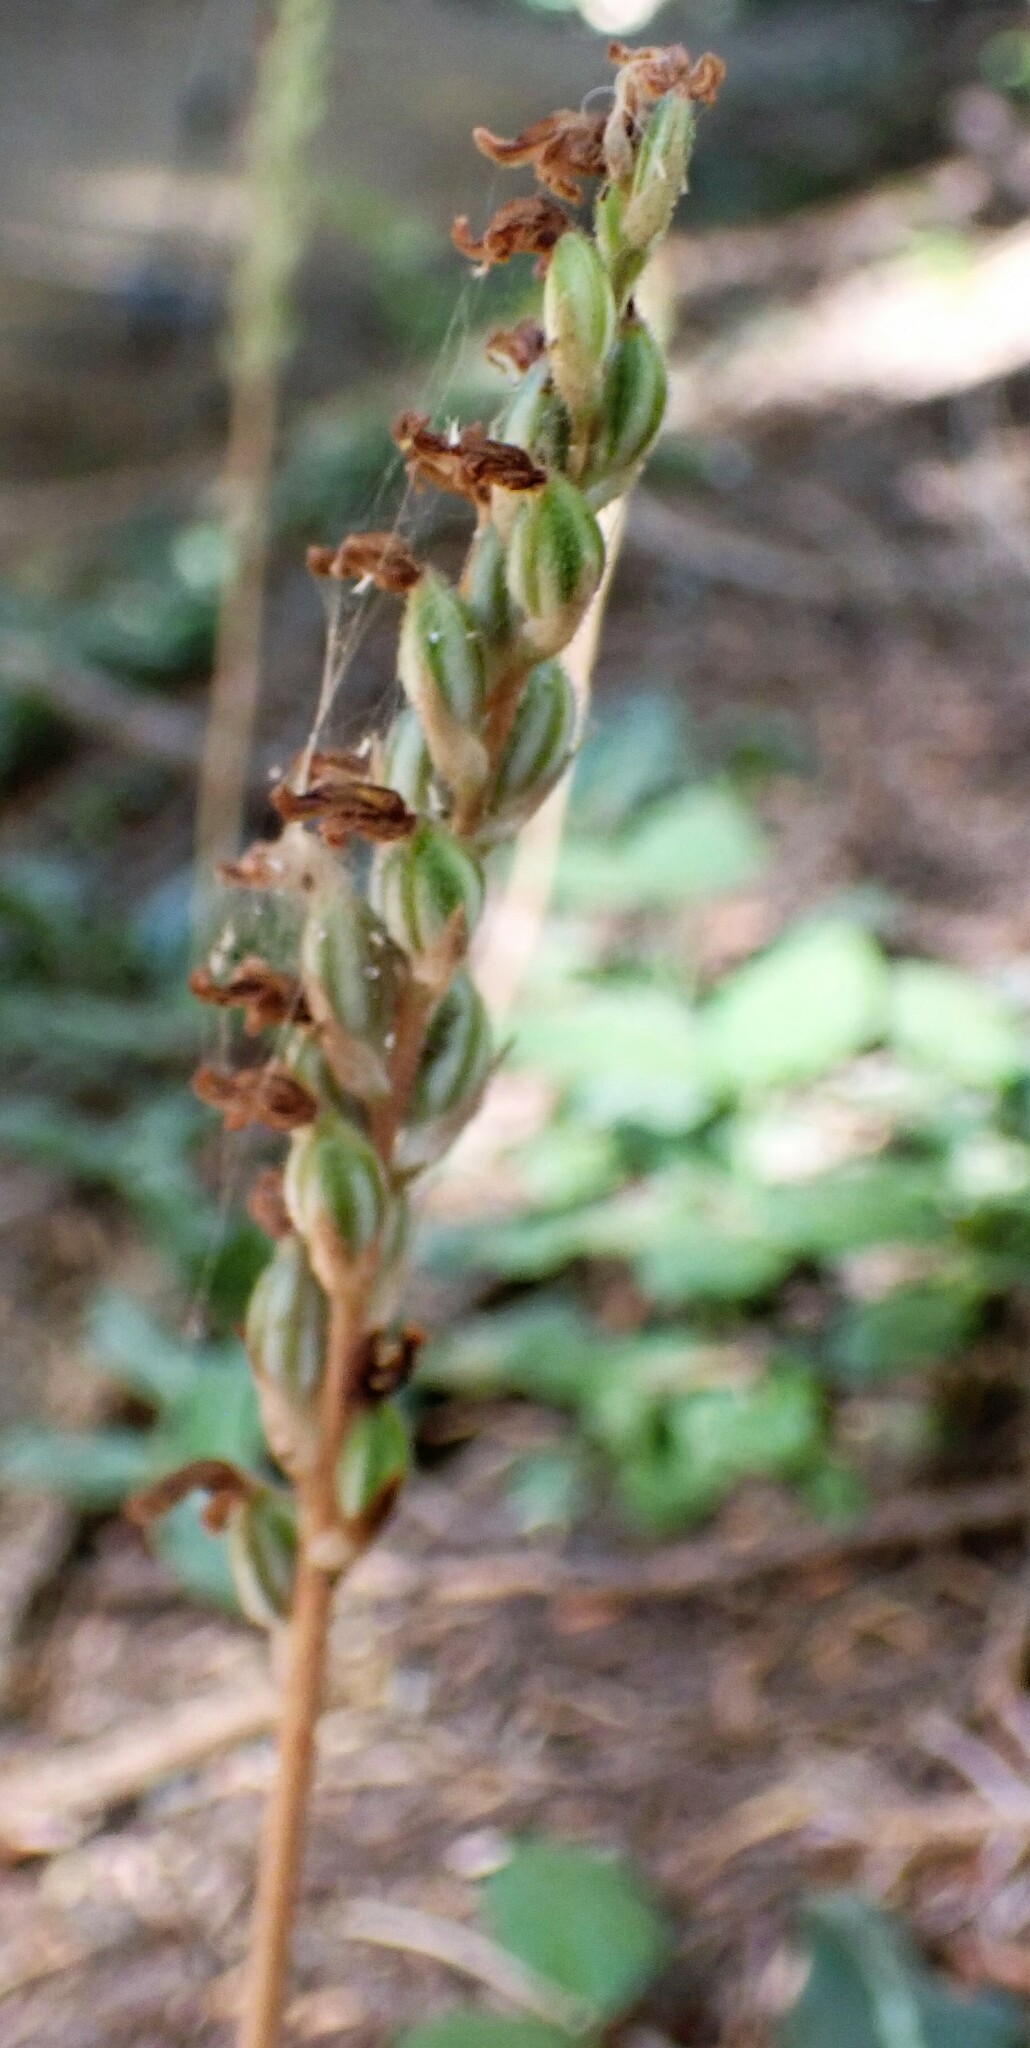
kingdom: Plantae
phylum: Tracheophyta
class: Liliopsida
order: Asparagales
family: Orchidaceae
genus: Goodyera
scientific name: Goodyera oblongifolia
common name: Giant rattlesnake-plantain
